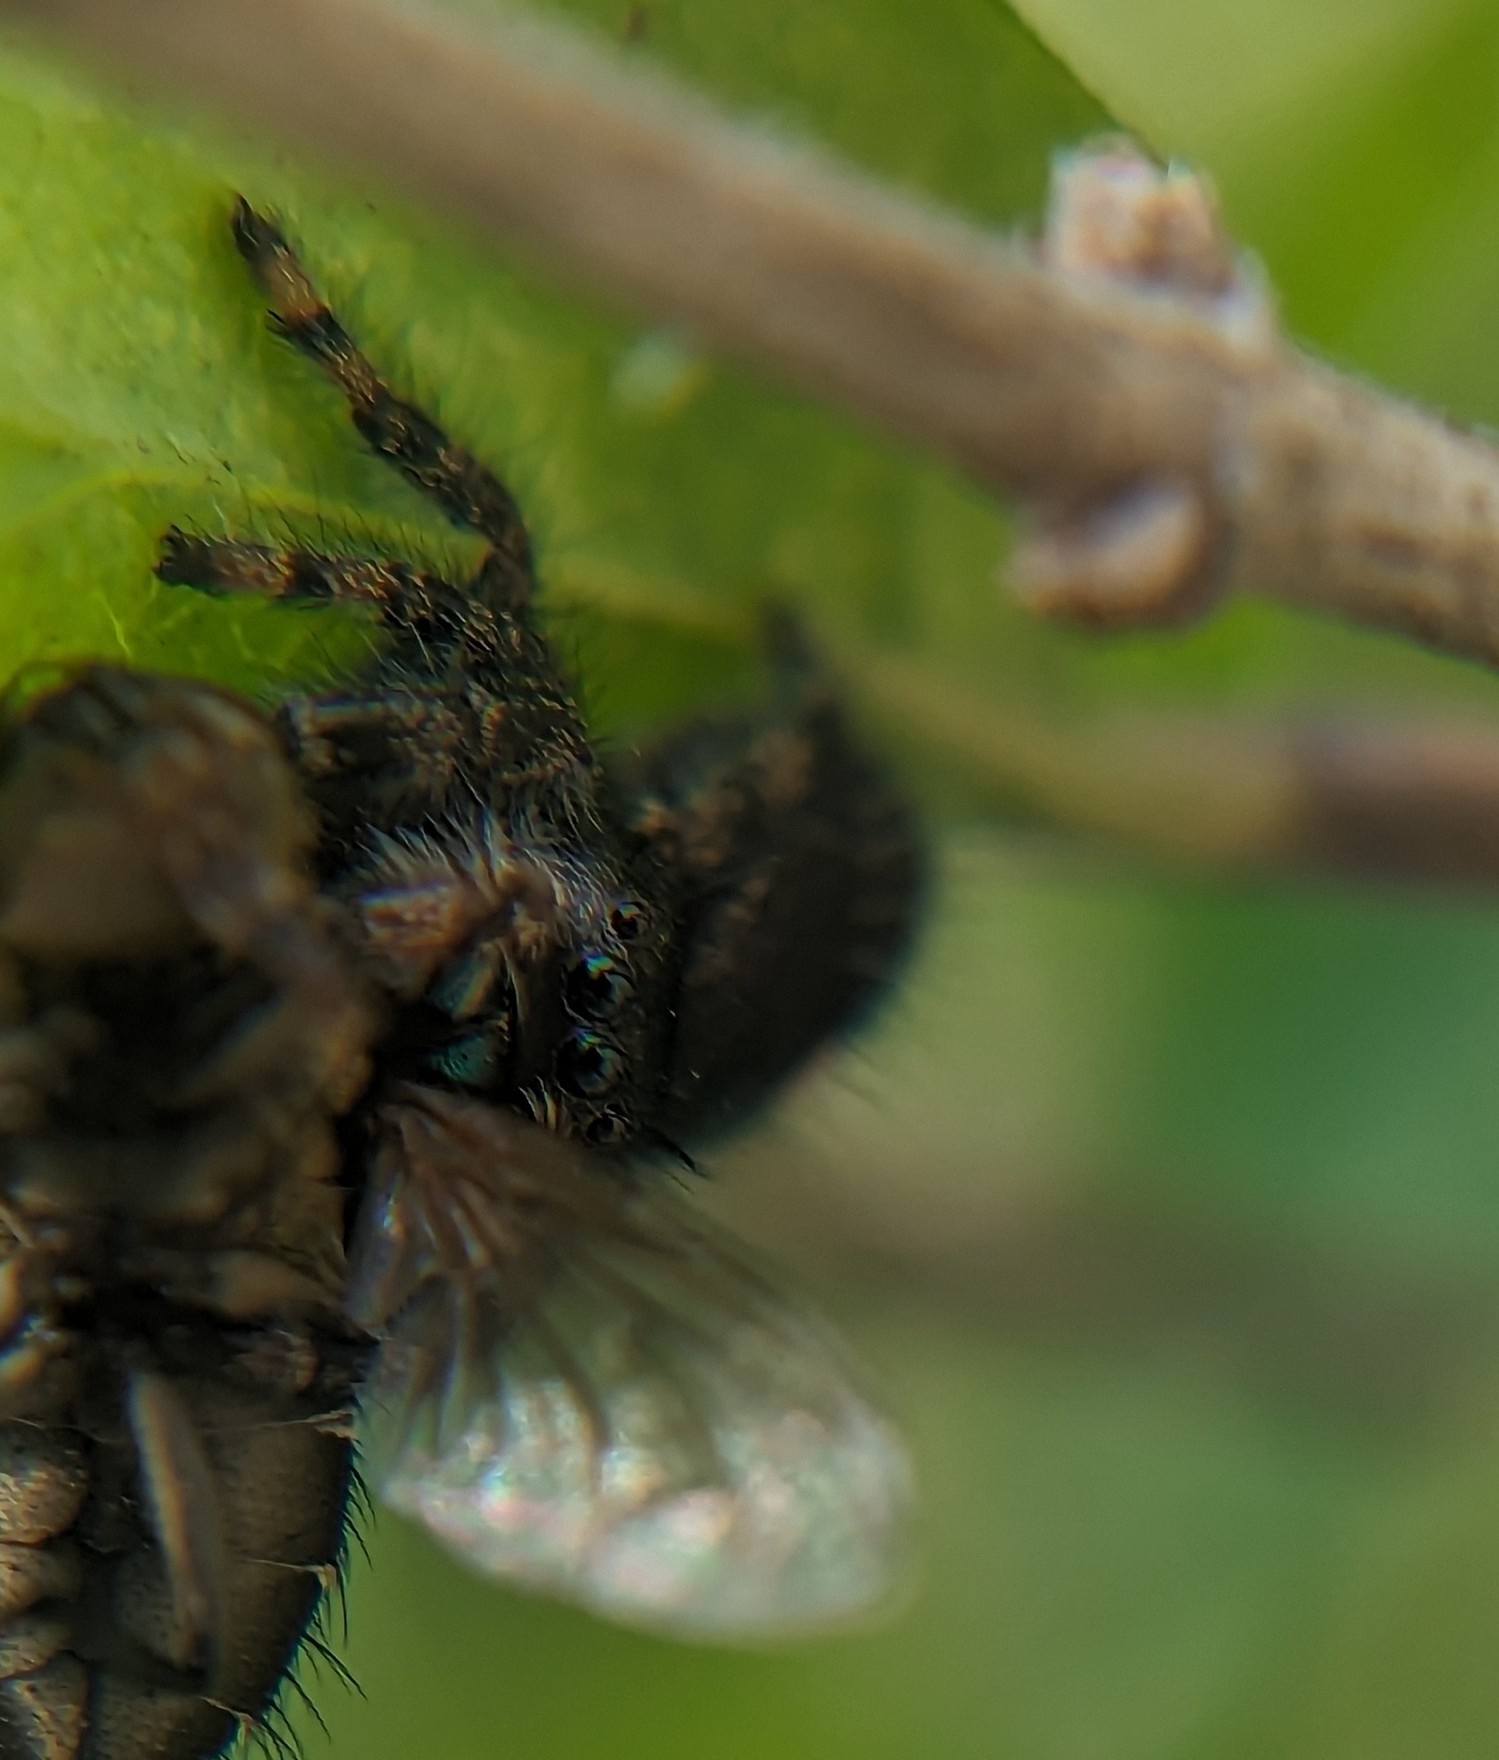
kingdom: Animalia
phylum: Arthropoda
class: Arachnida
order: Araneae
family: Salticidae
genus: Phidippus
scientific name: Phidippus audax
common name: Bold jumper
